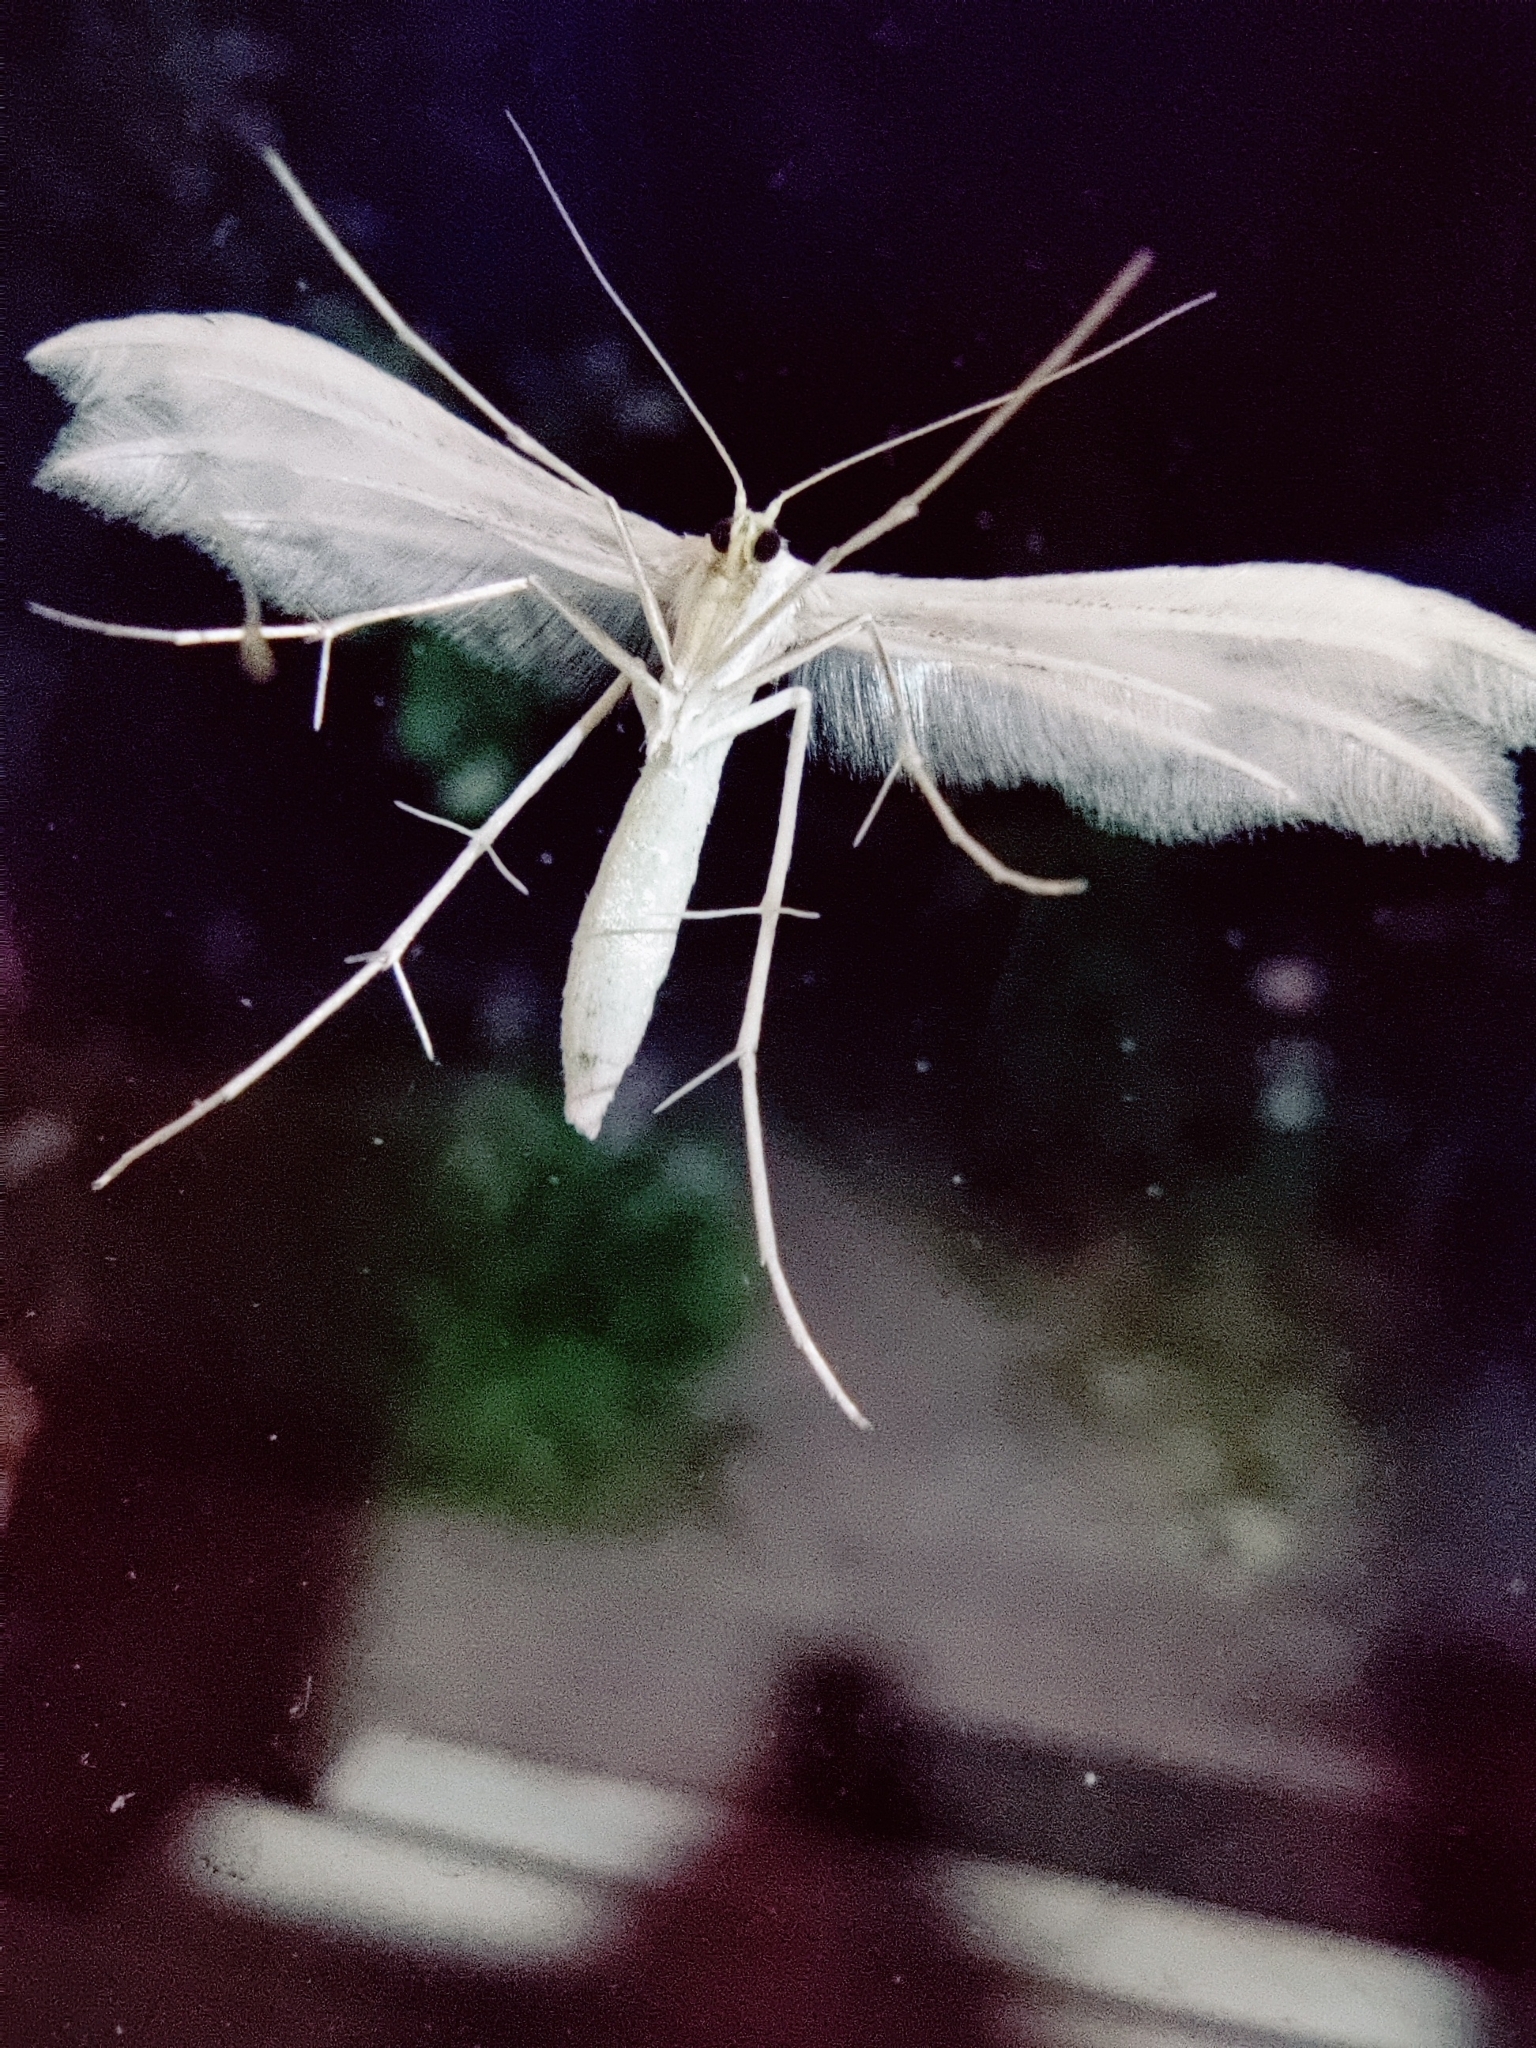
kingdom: Animalia
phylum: Arthropoda
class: Insecta
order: Lepidoptera
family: Pterophoridae
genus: Pterophorus
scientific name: Pterophorus pentadactyla
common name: White plume moth
